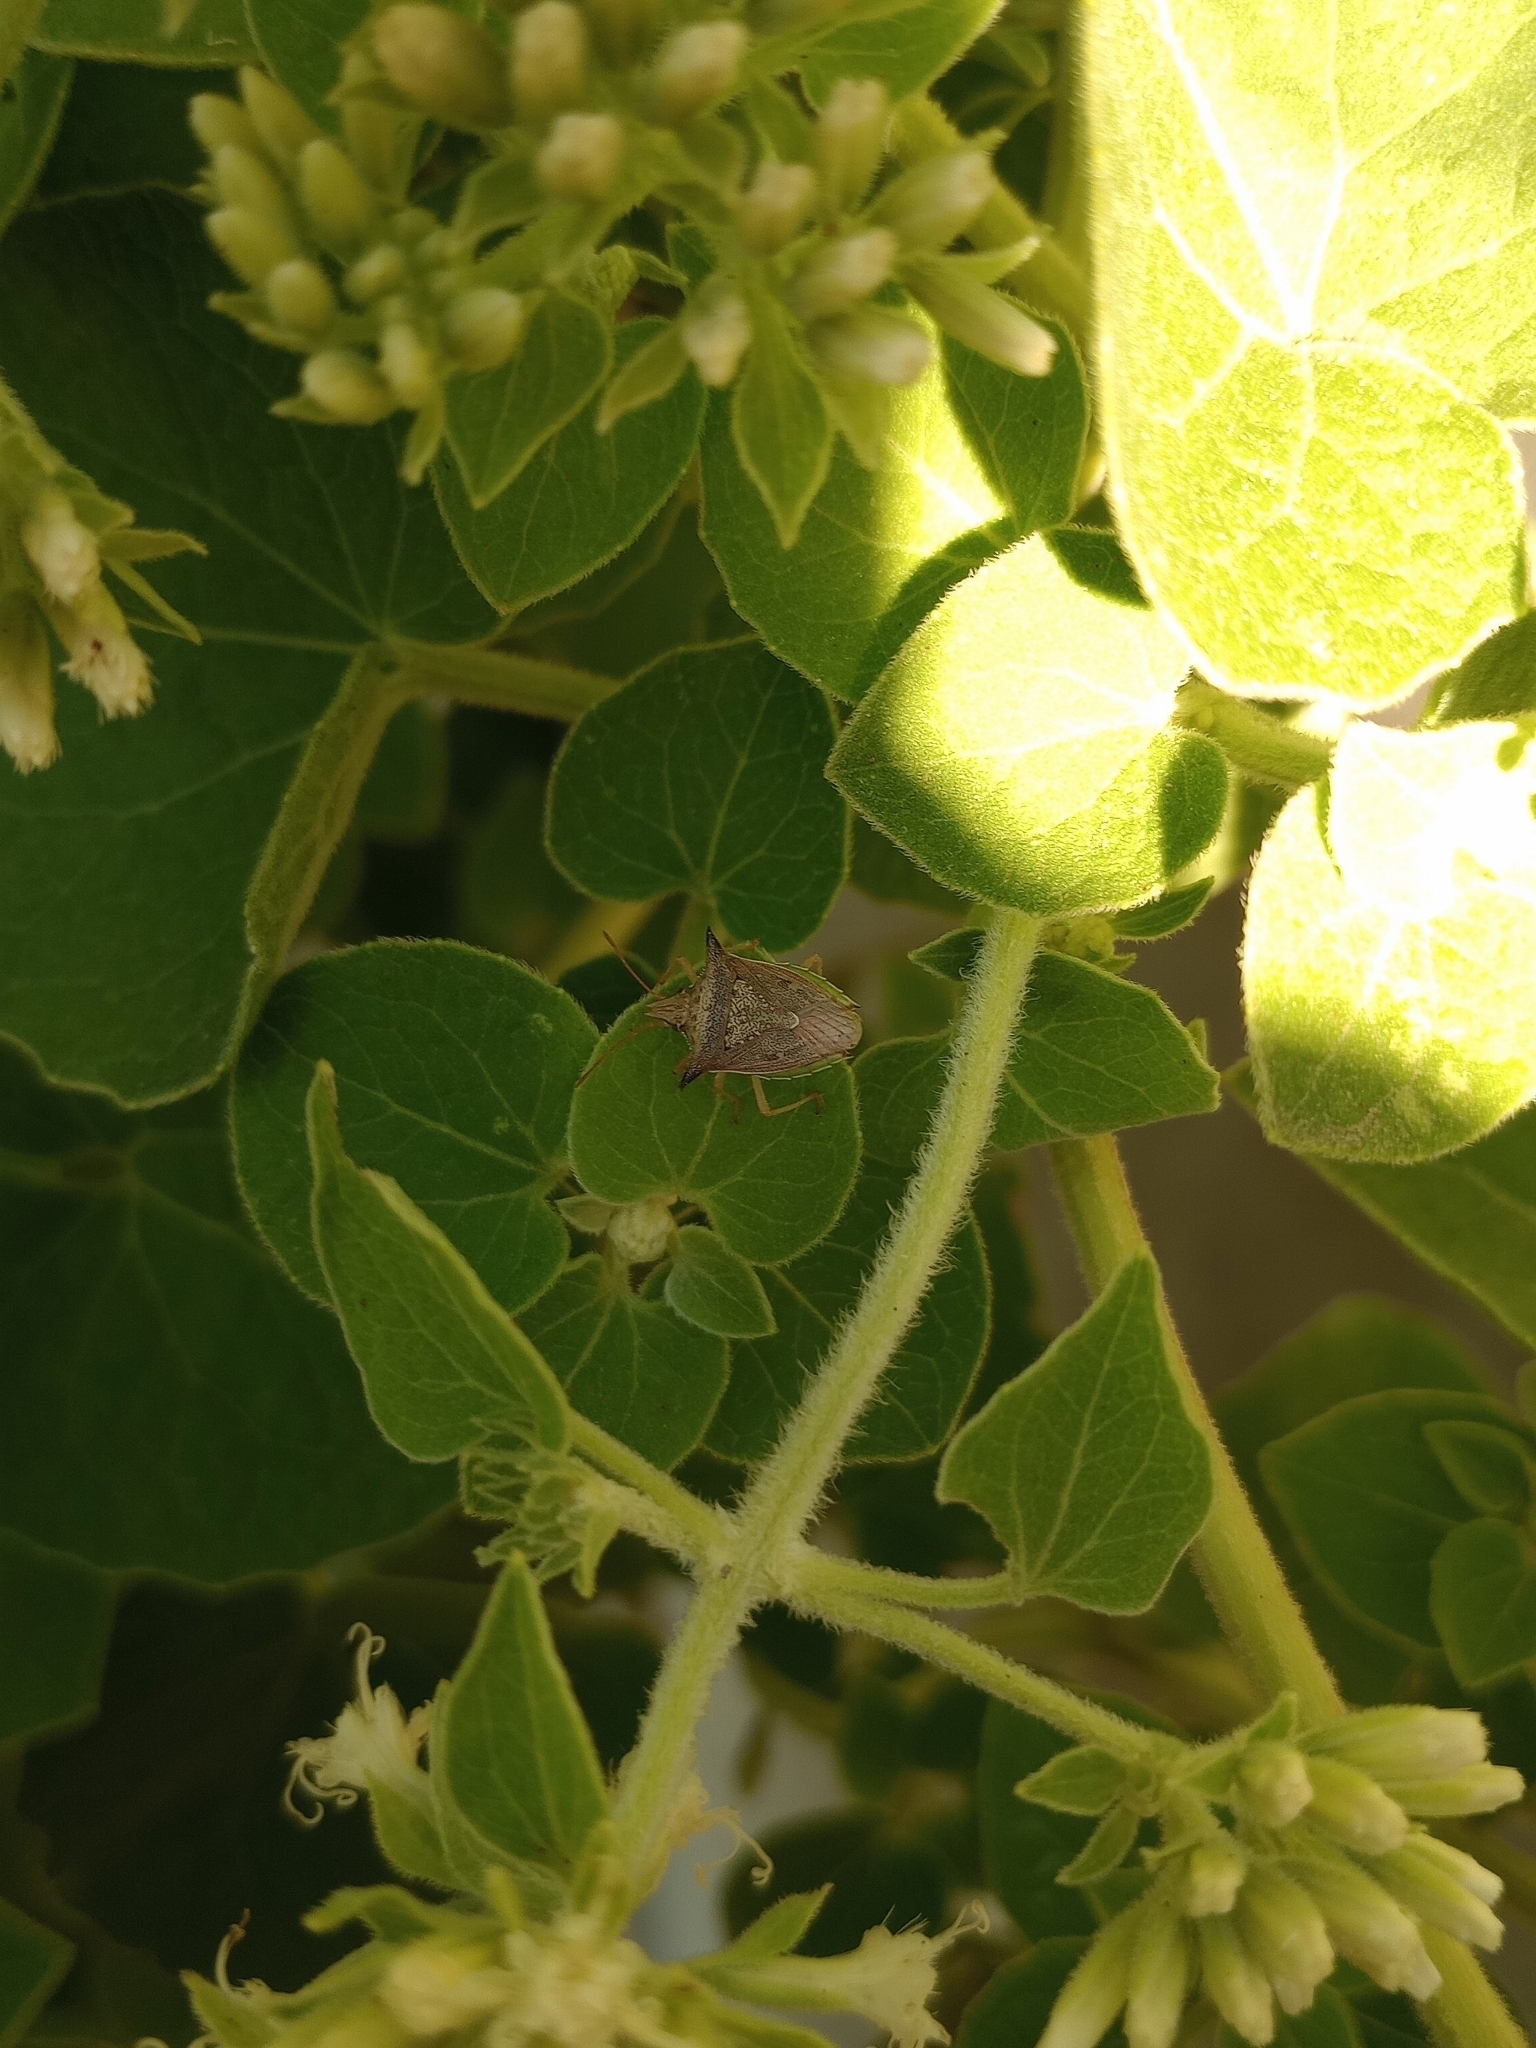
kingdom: Animalia
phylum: Arthropoda
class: Insecta
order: Hemiptera
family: Pentatomidae
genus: Diceraeus
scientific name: Diceraeus melacanthus
